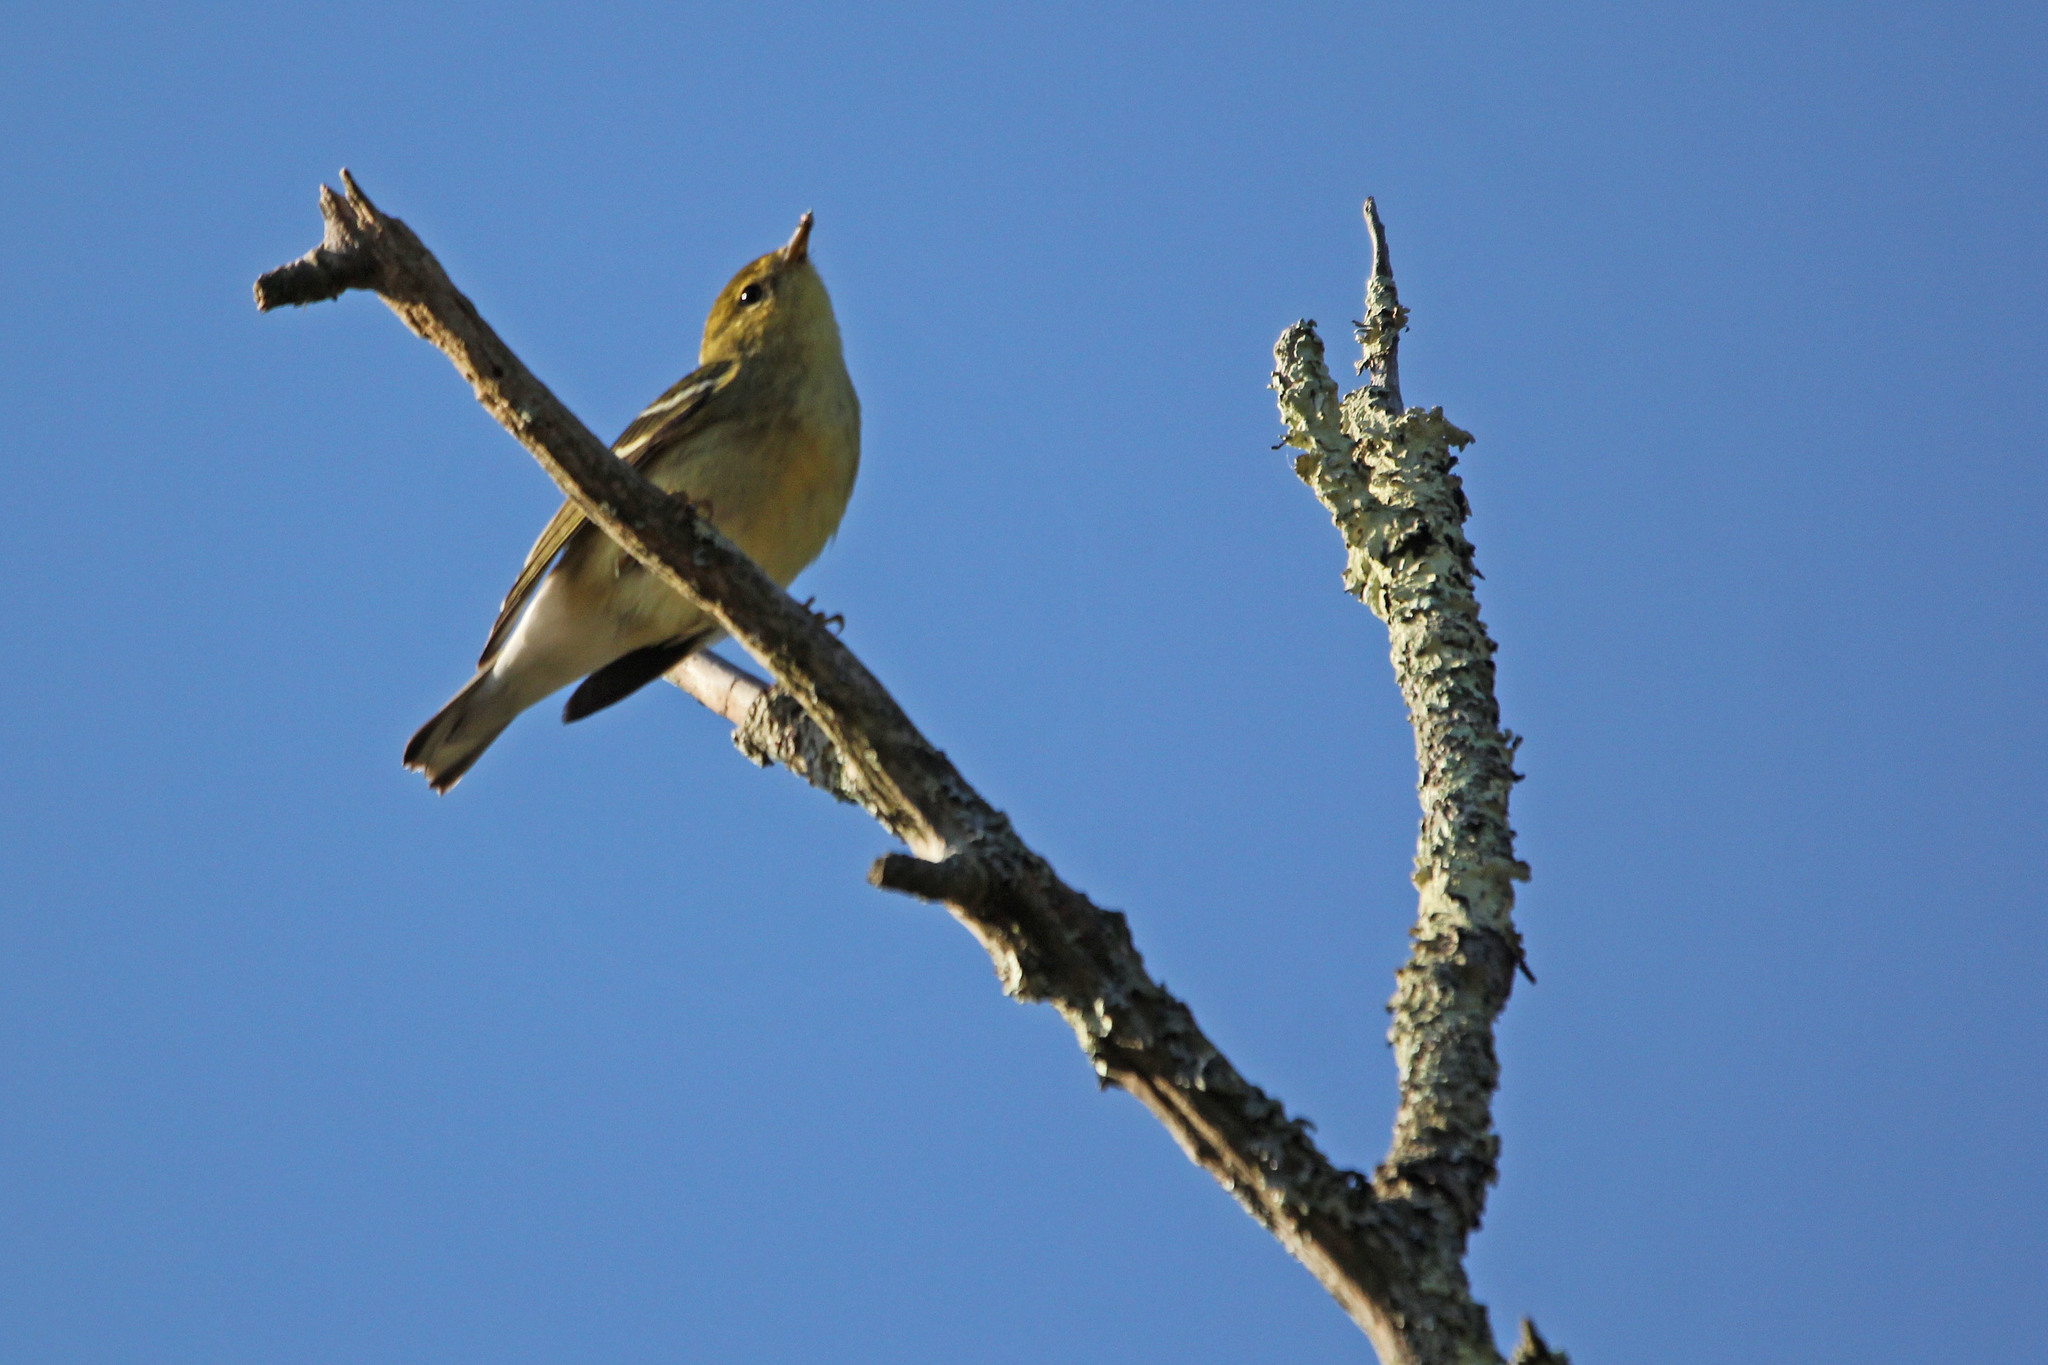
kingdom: Animalia
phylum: Chordata
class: Aves
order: Passeriformes
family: Parulidae
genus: Setophaga
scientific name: Setophaga striata
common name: Blackpoll warbler
